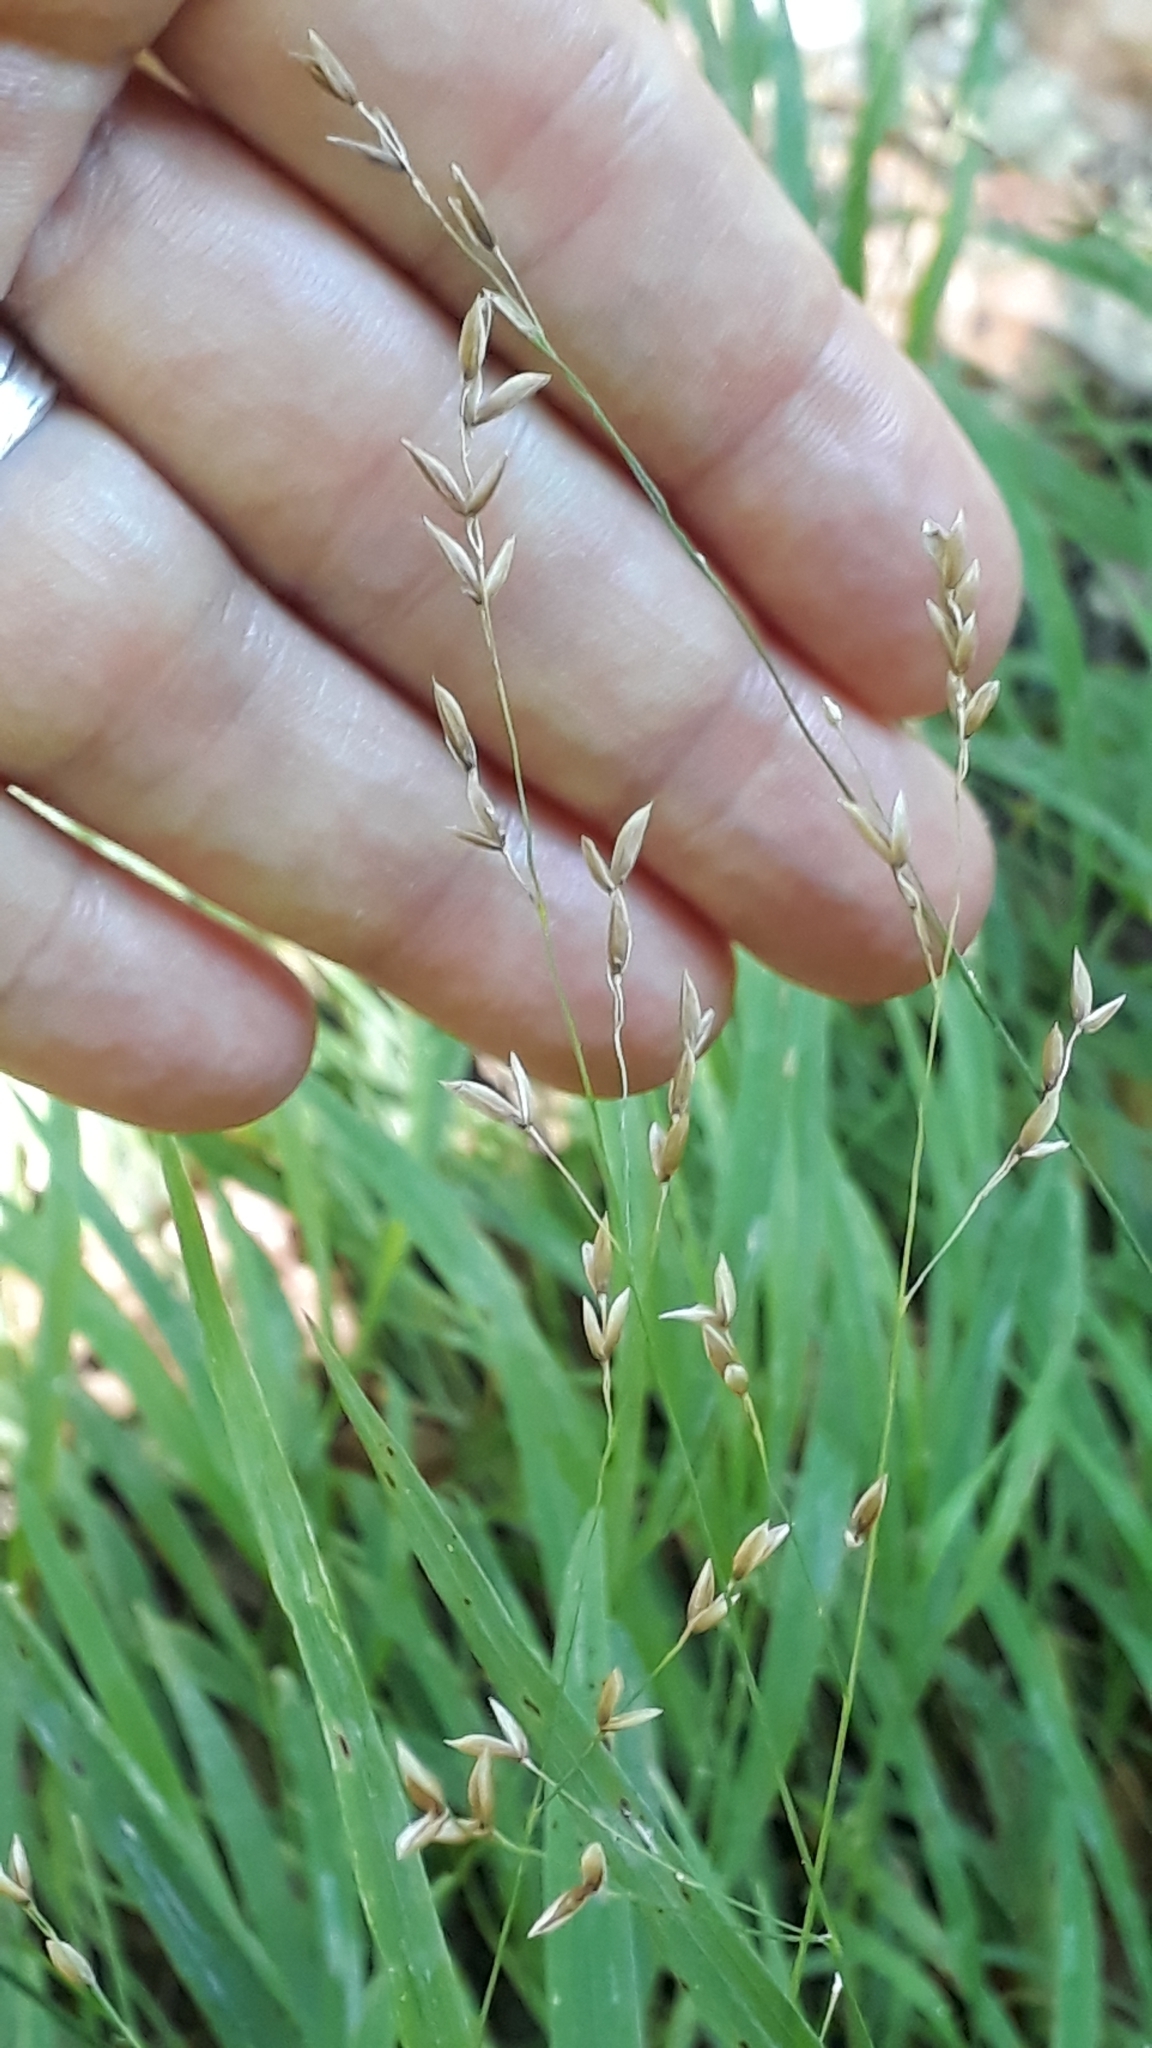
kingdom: Plantae
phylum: Tracheophyta
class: Liliopsida
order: Poales
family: Poaceae
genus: Melica
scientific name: Melica uniflora
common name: Wood melick
